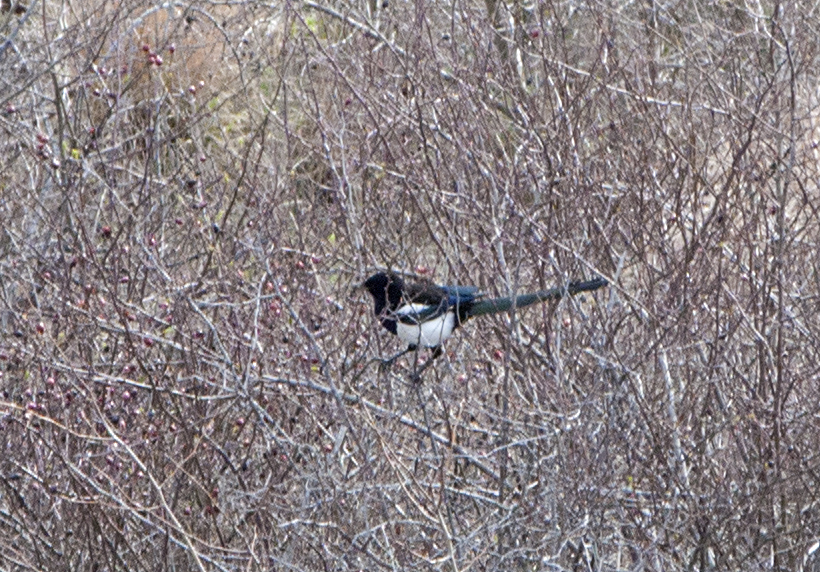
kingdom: Animalia
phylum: Chordata
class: Aves
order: Passeriformes
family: Corvidae
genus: Pica
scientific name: Pica pica
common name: Eurasian magpie
